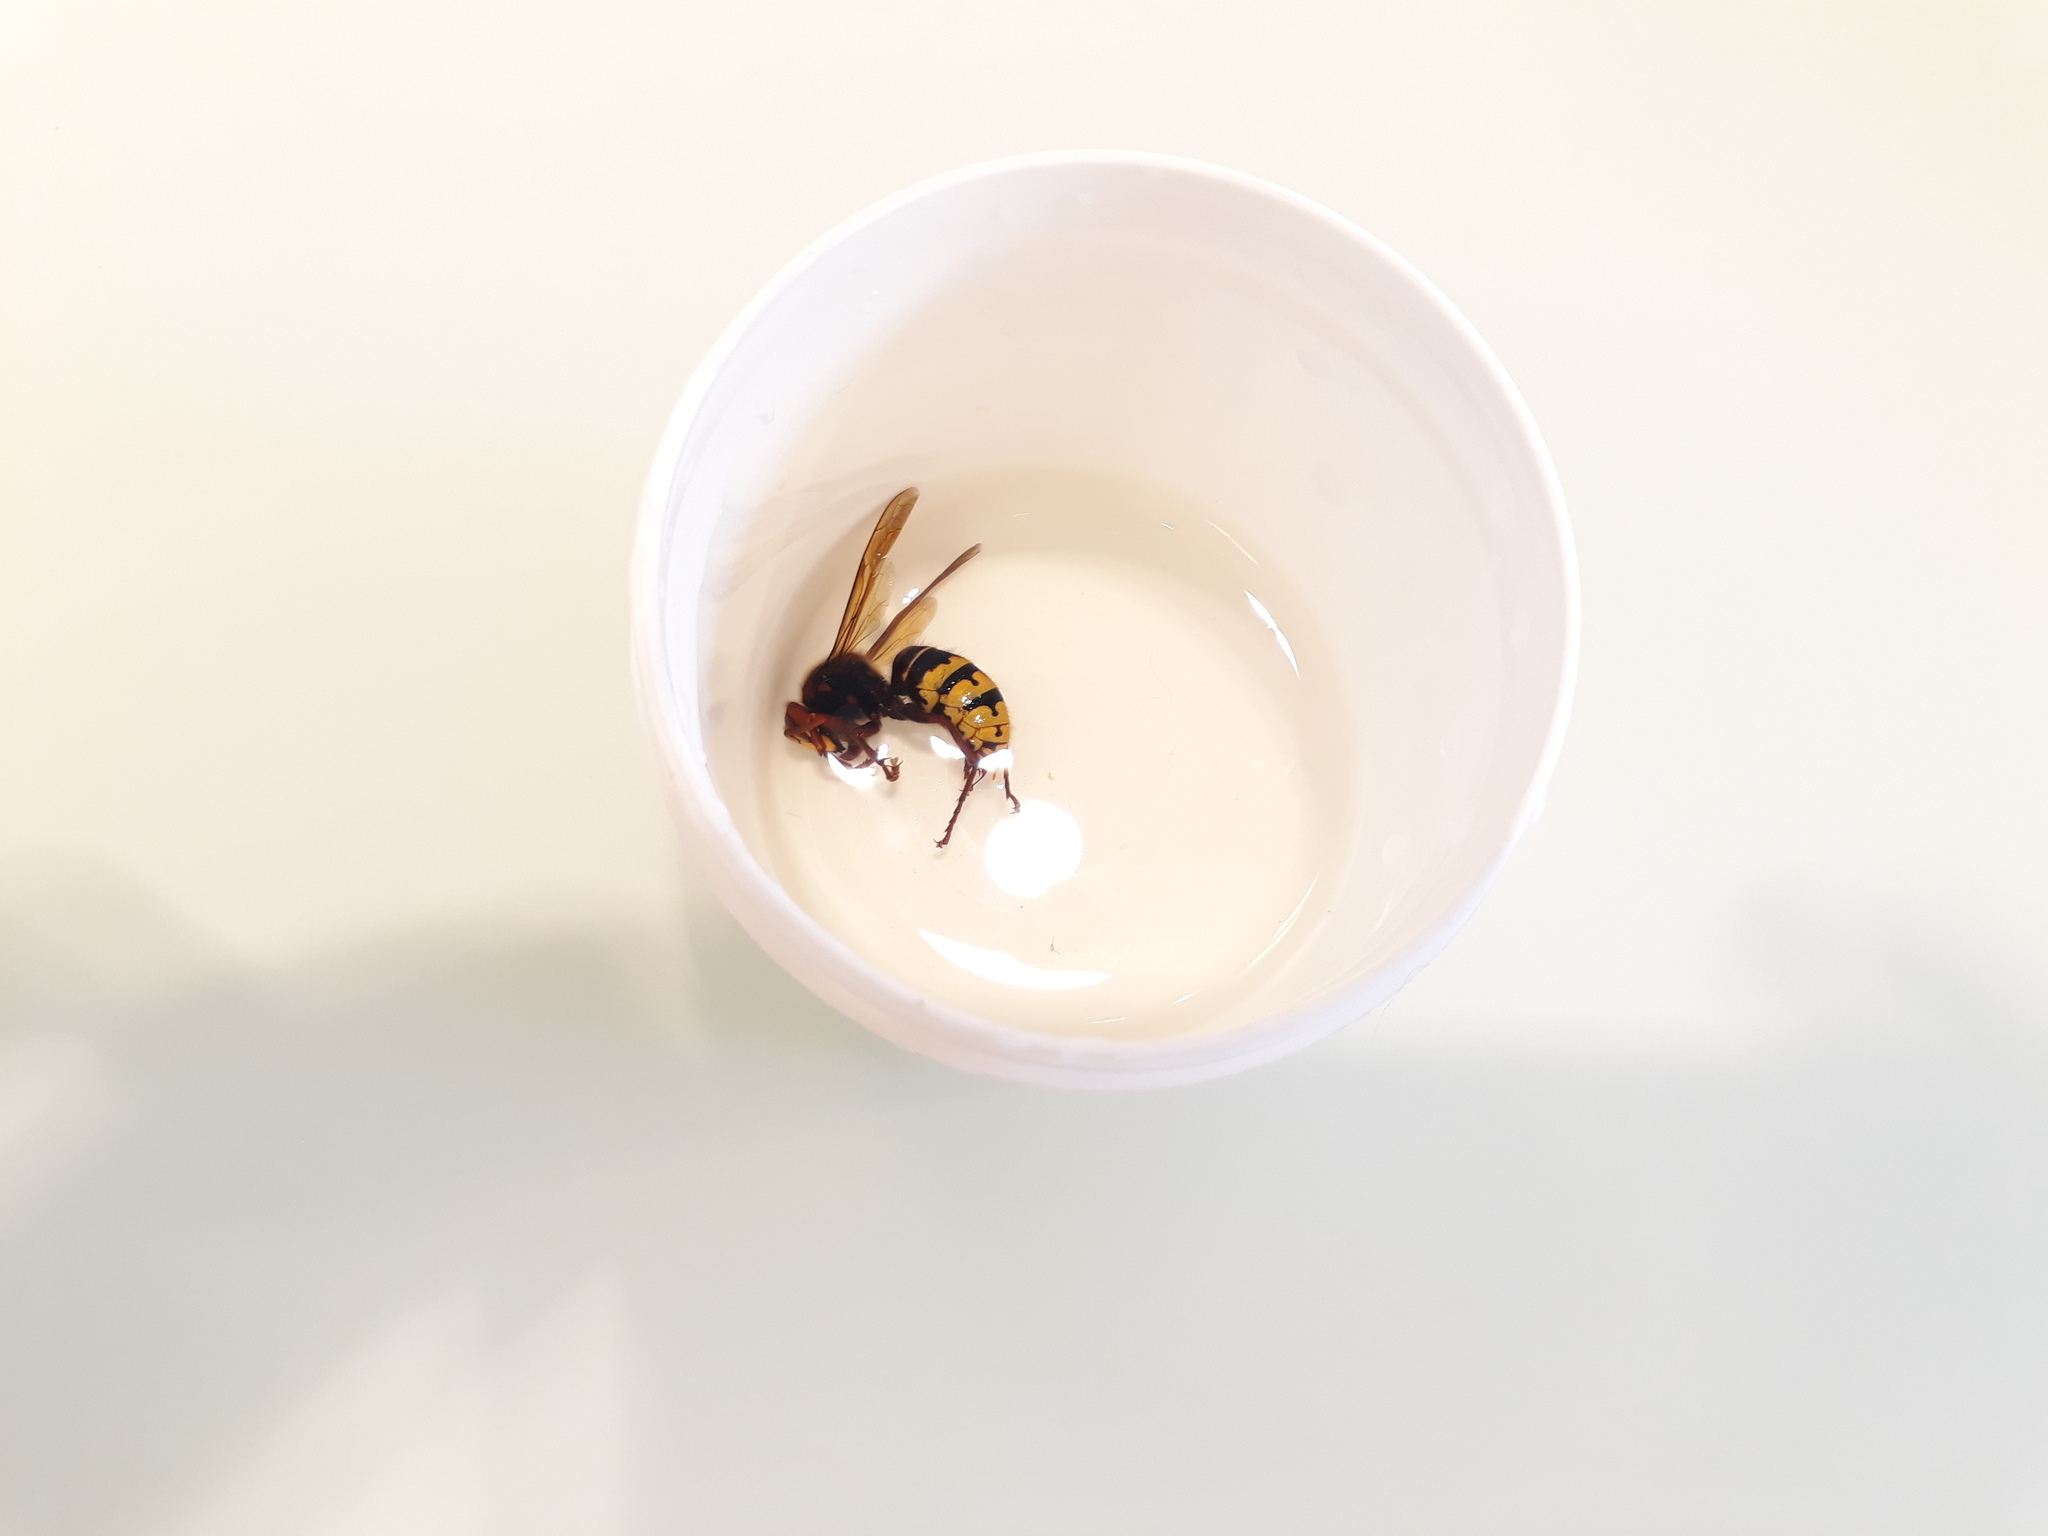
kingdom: Animalia
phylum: Arthropoda
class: Insecta
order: Hymenoptera
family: Vespidae
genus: Vespa
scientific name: Vespa crabro
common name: Hornet
